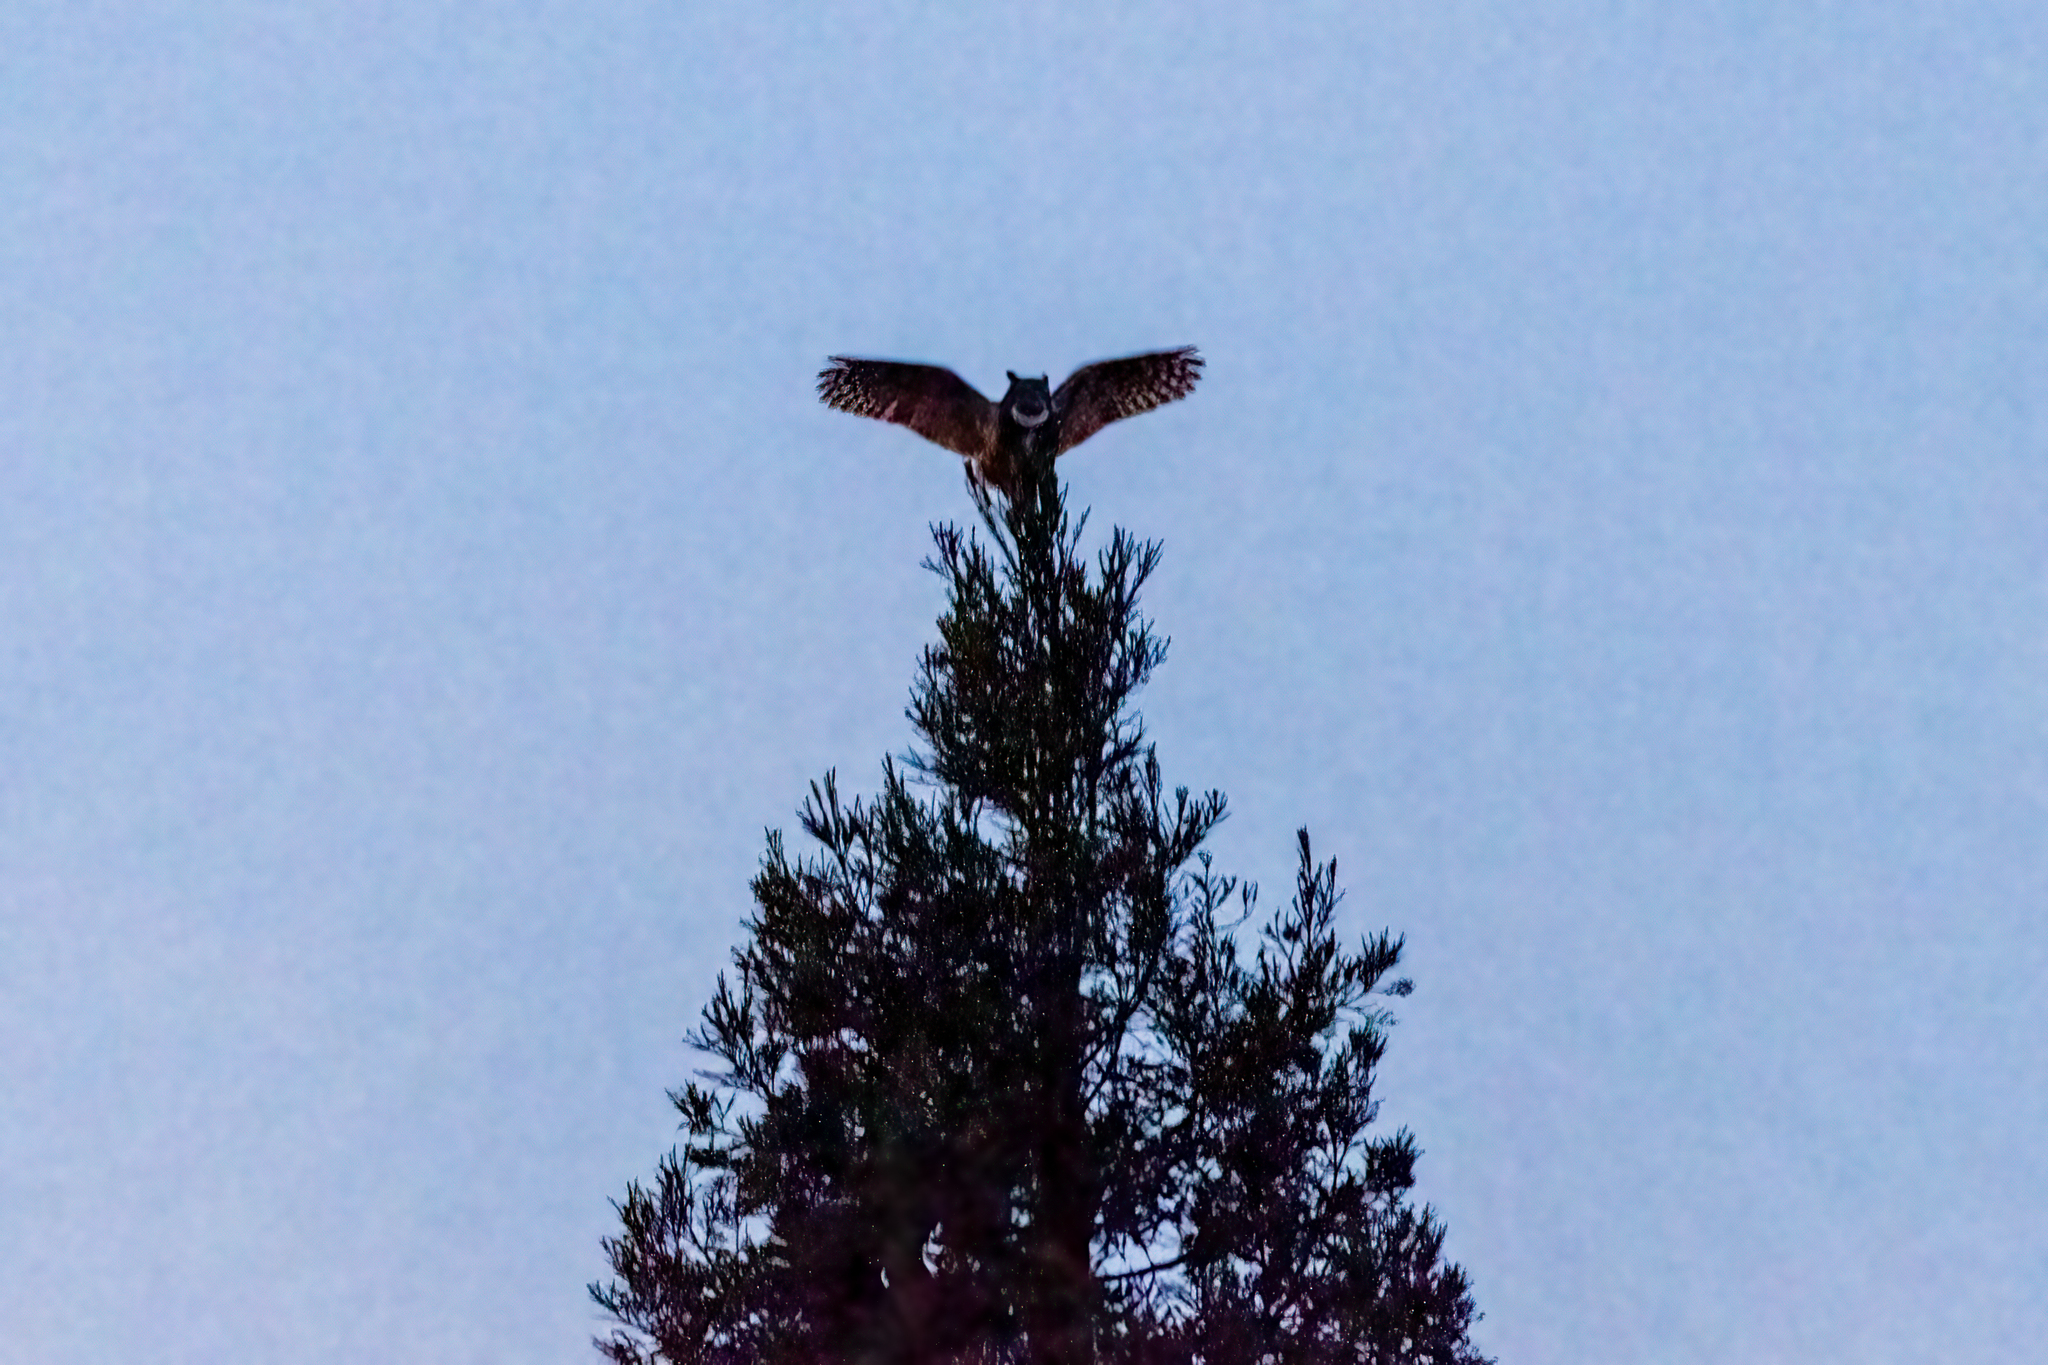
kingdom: Animalia
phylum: Chordata
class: Aves
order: Strigiformes
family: Strigidae
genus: Bubo
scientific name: Bubo virginianus
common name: Great horned owl
